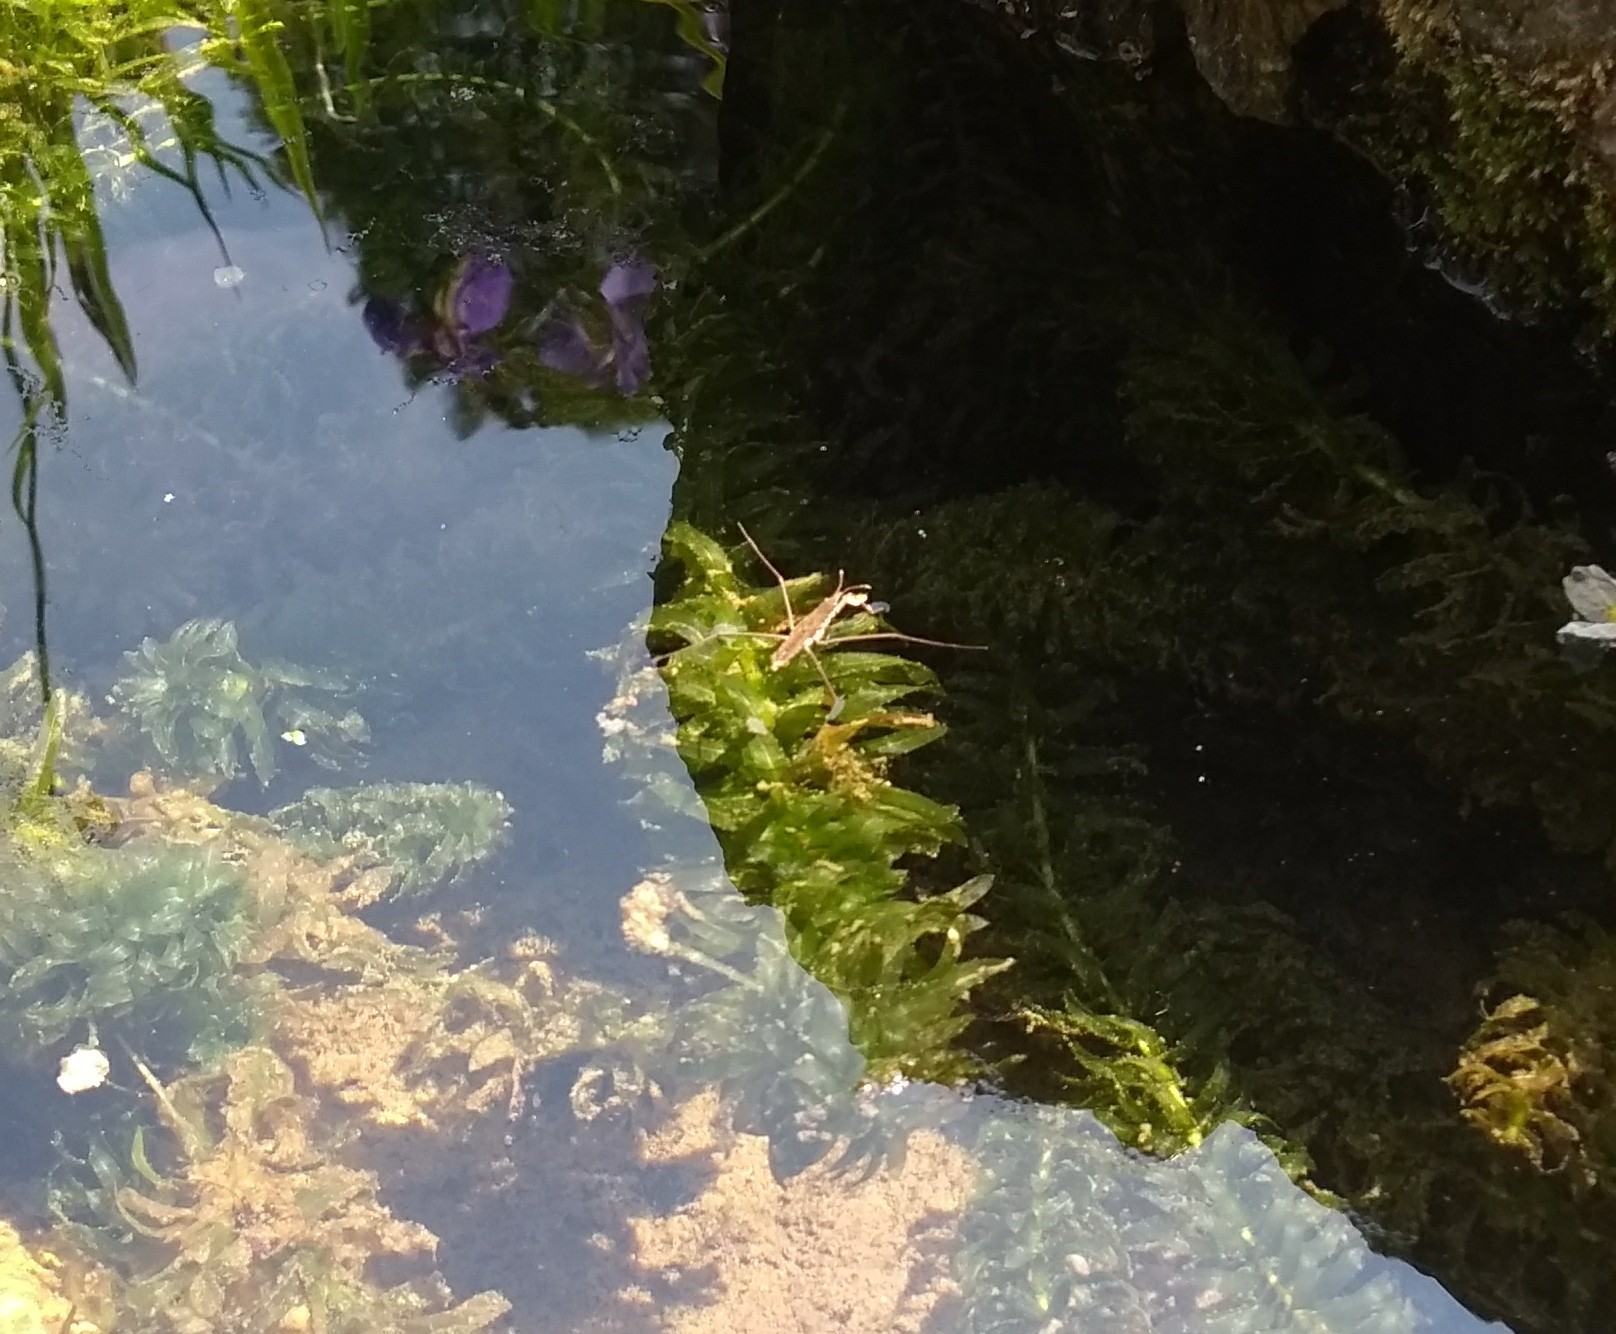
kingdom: Animalia
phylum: Arthropoda
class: Insecta
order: Hemiptera
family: Gerridae
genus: Aquarius
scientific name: Aquarius remigis
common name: Common water strider
